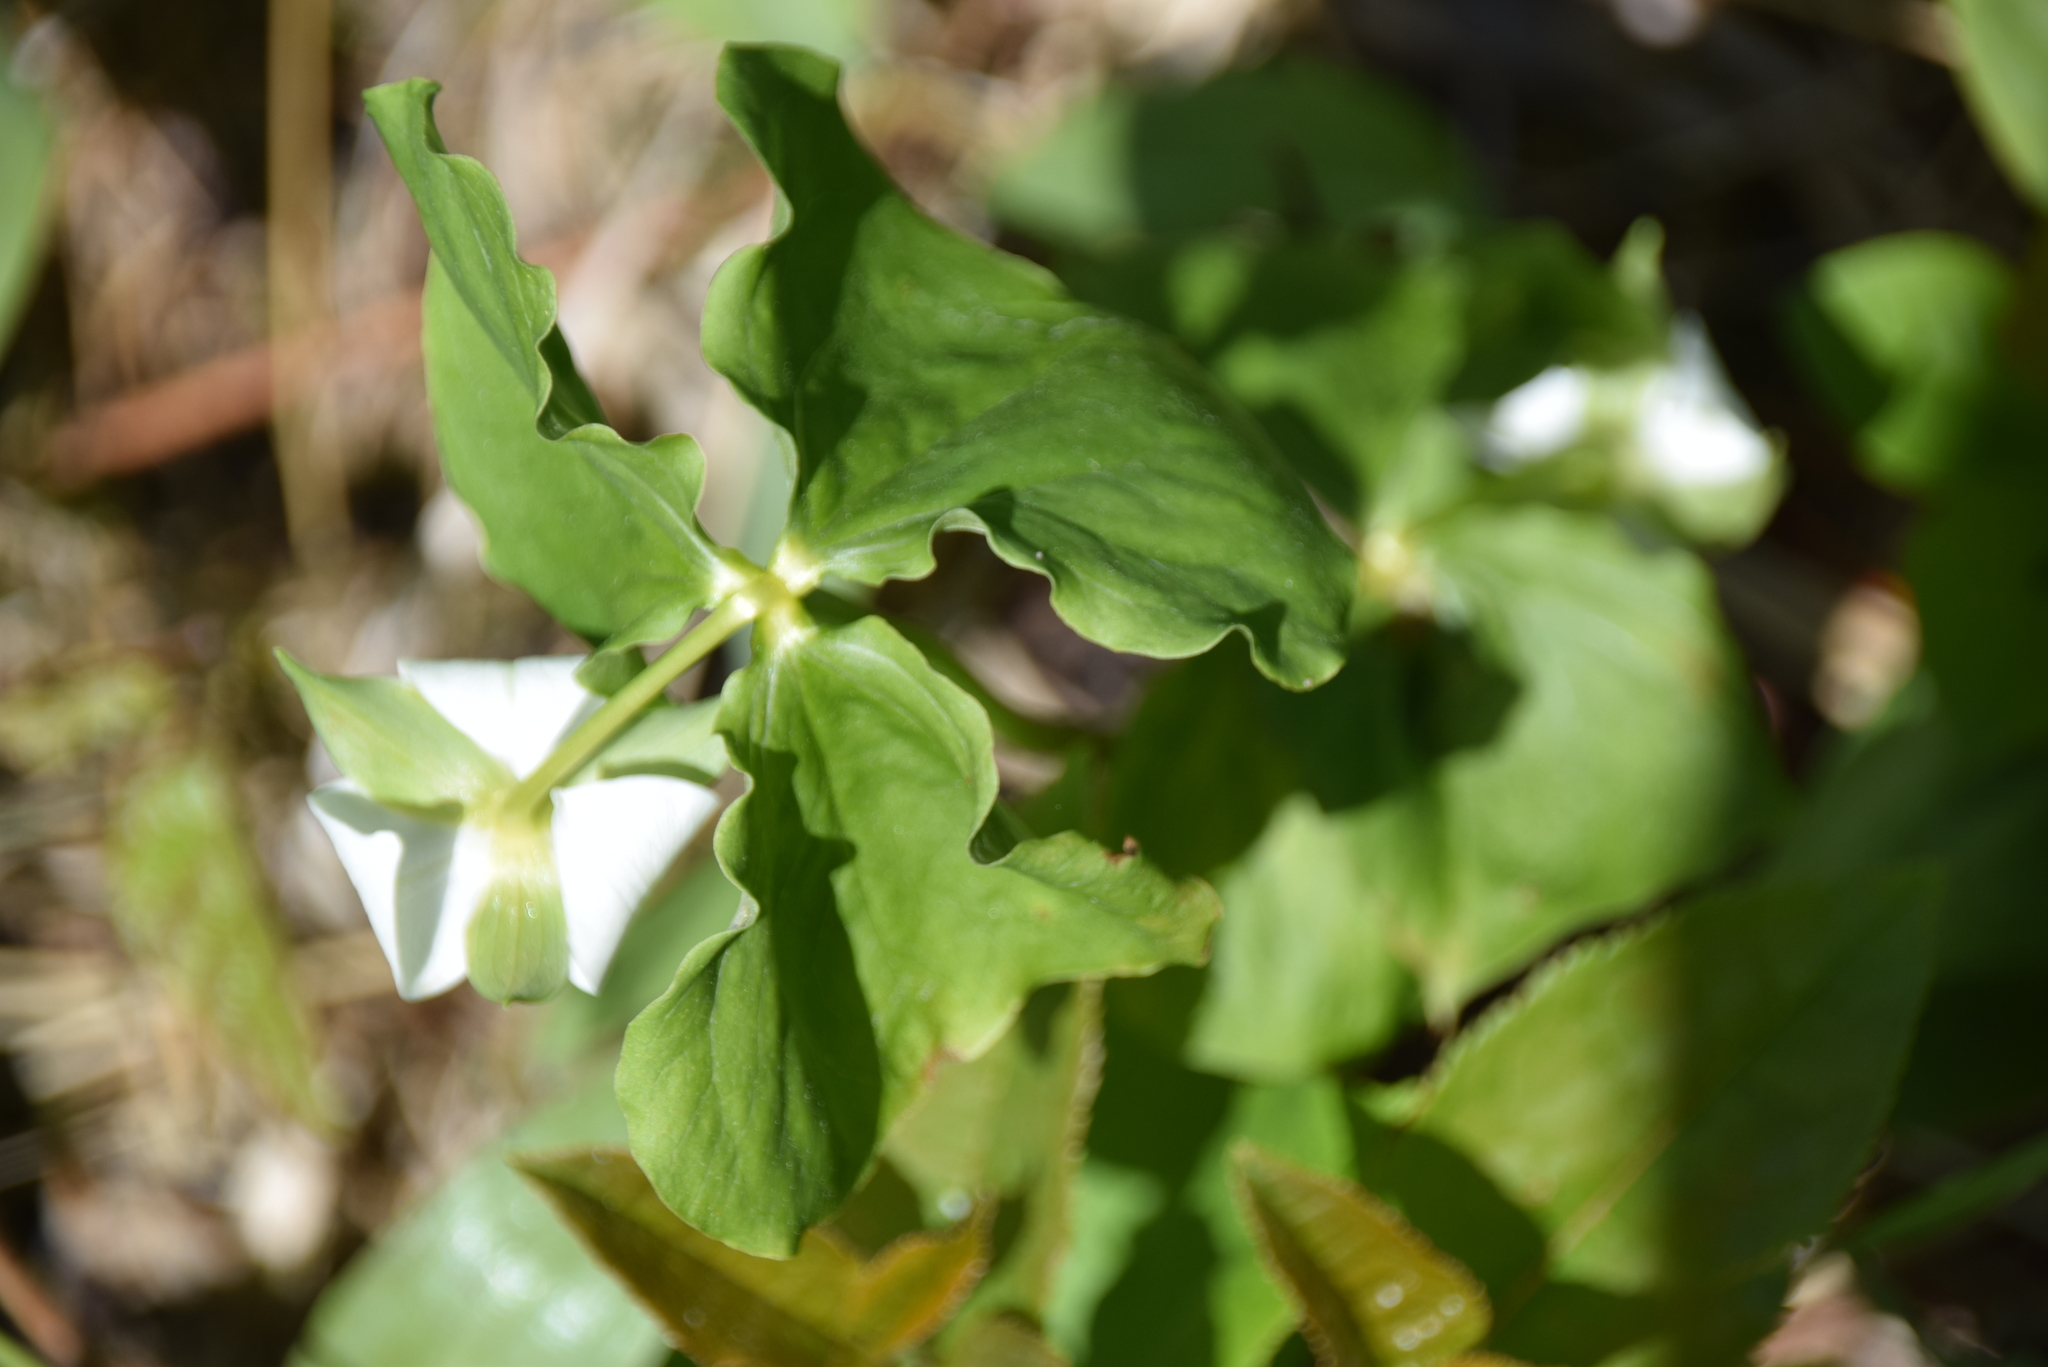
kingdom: Plantae
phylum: Tracheophyta
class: Liliopsida
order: Liliales
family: Melanthiaceae
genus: Trillium
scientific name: Trillium cernuum
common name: Nodding trillium
